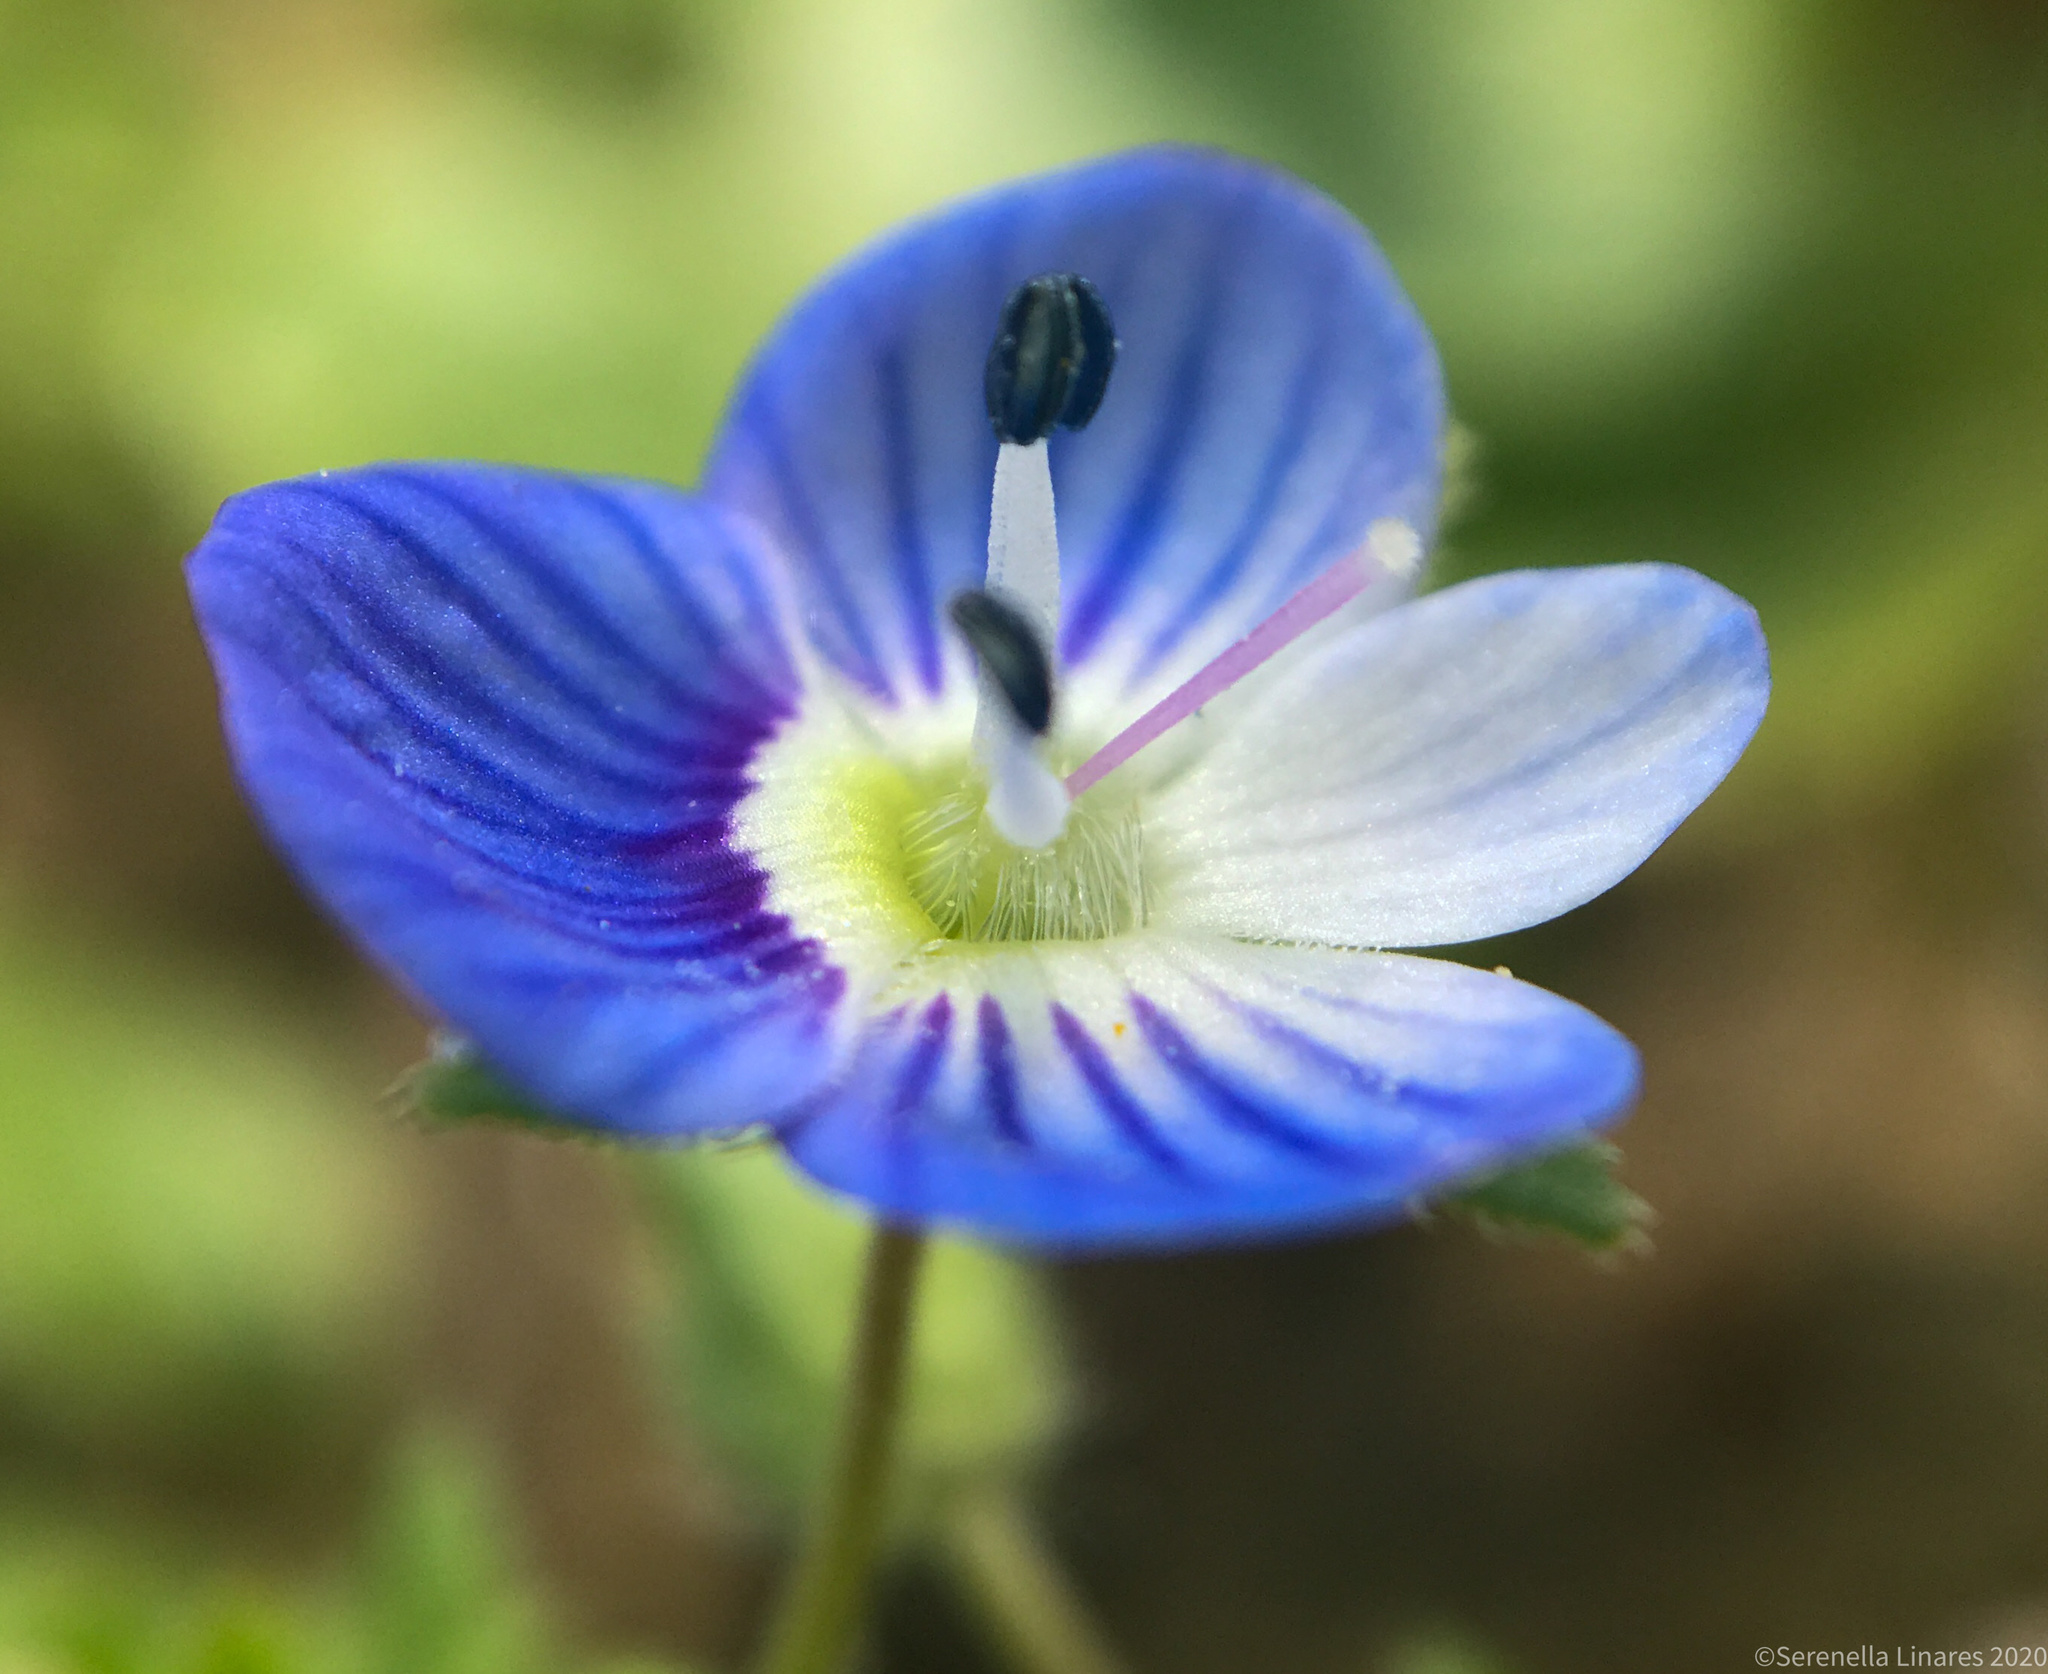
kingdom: Plantae
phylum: Tracheophyta
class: Magnoliopsida
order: Lamiales
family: Plantaginaceae
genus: Veronica
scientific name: Veronica persica
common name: Common field-speedwell
